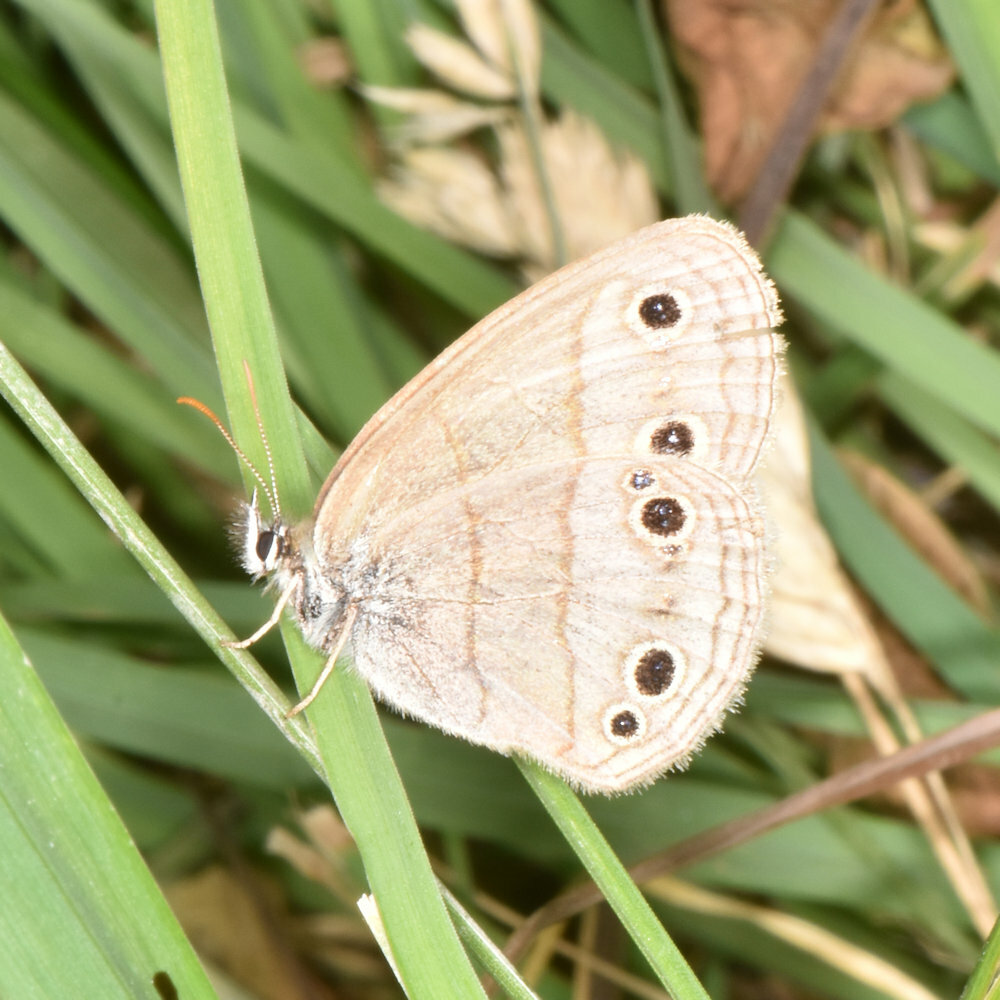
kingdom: Animalia
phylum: Arthropoda
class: Insecta
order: Lepidoptera
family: Nymphalidae
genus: Euptychia
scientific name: Euptychia cymela
